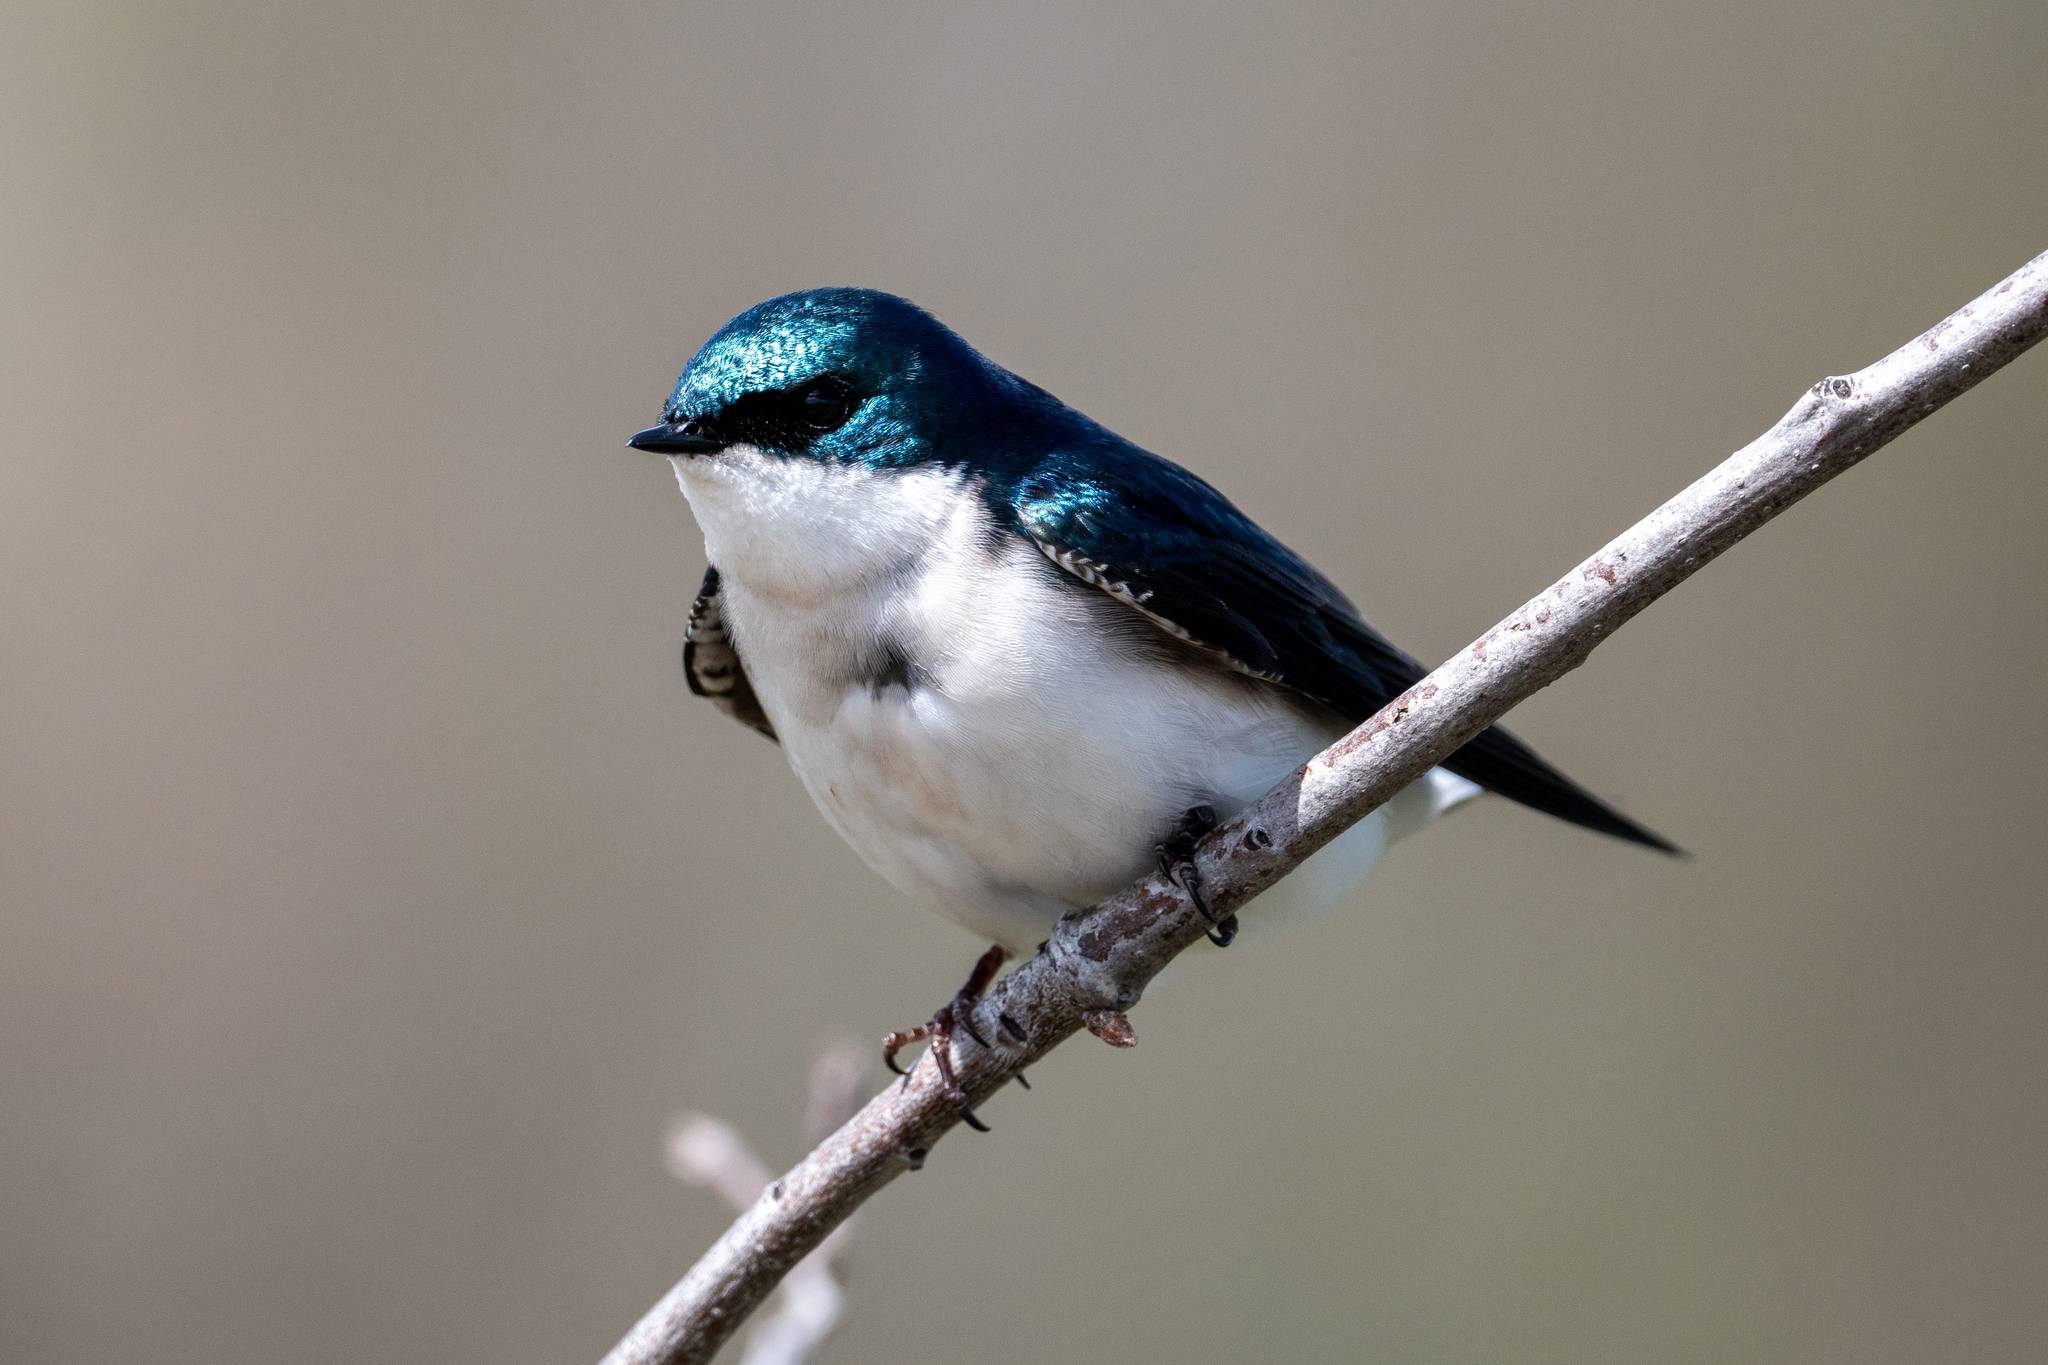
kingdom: Animalia
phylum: Chordata
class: Aves
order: Passeriformes
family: Hirundinidae
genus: Tachycineta
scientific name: Tachycineta bicolor
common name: Tree swallow
